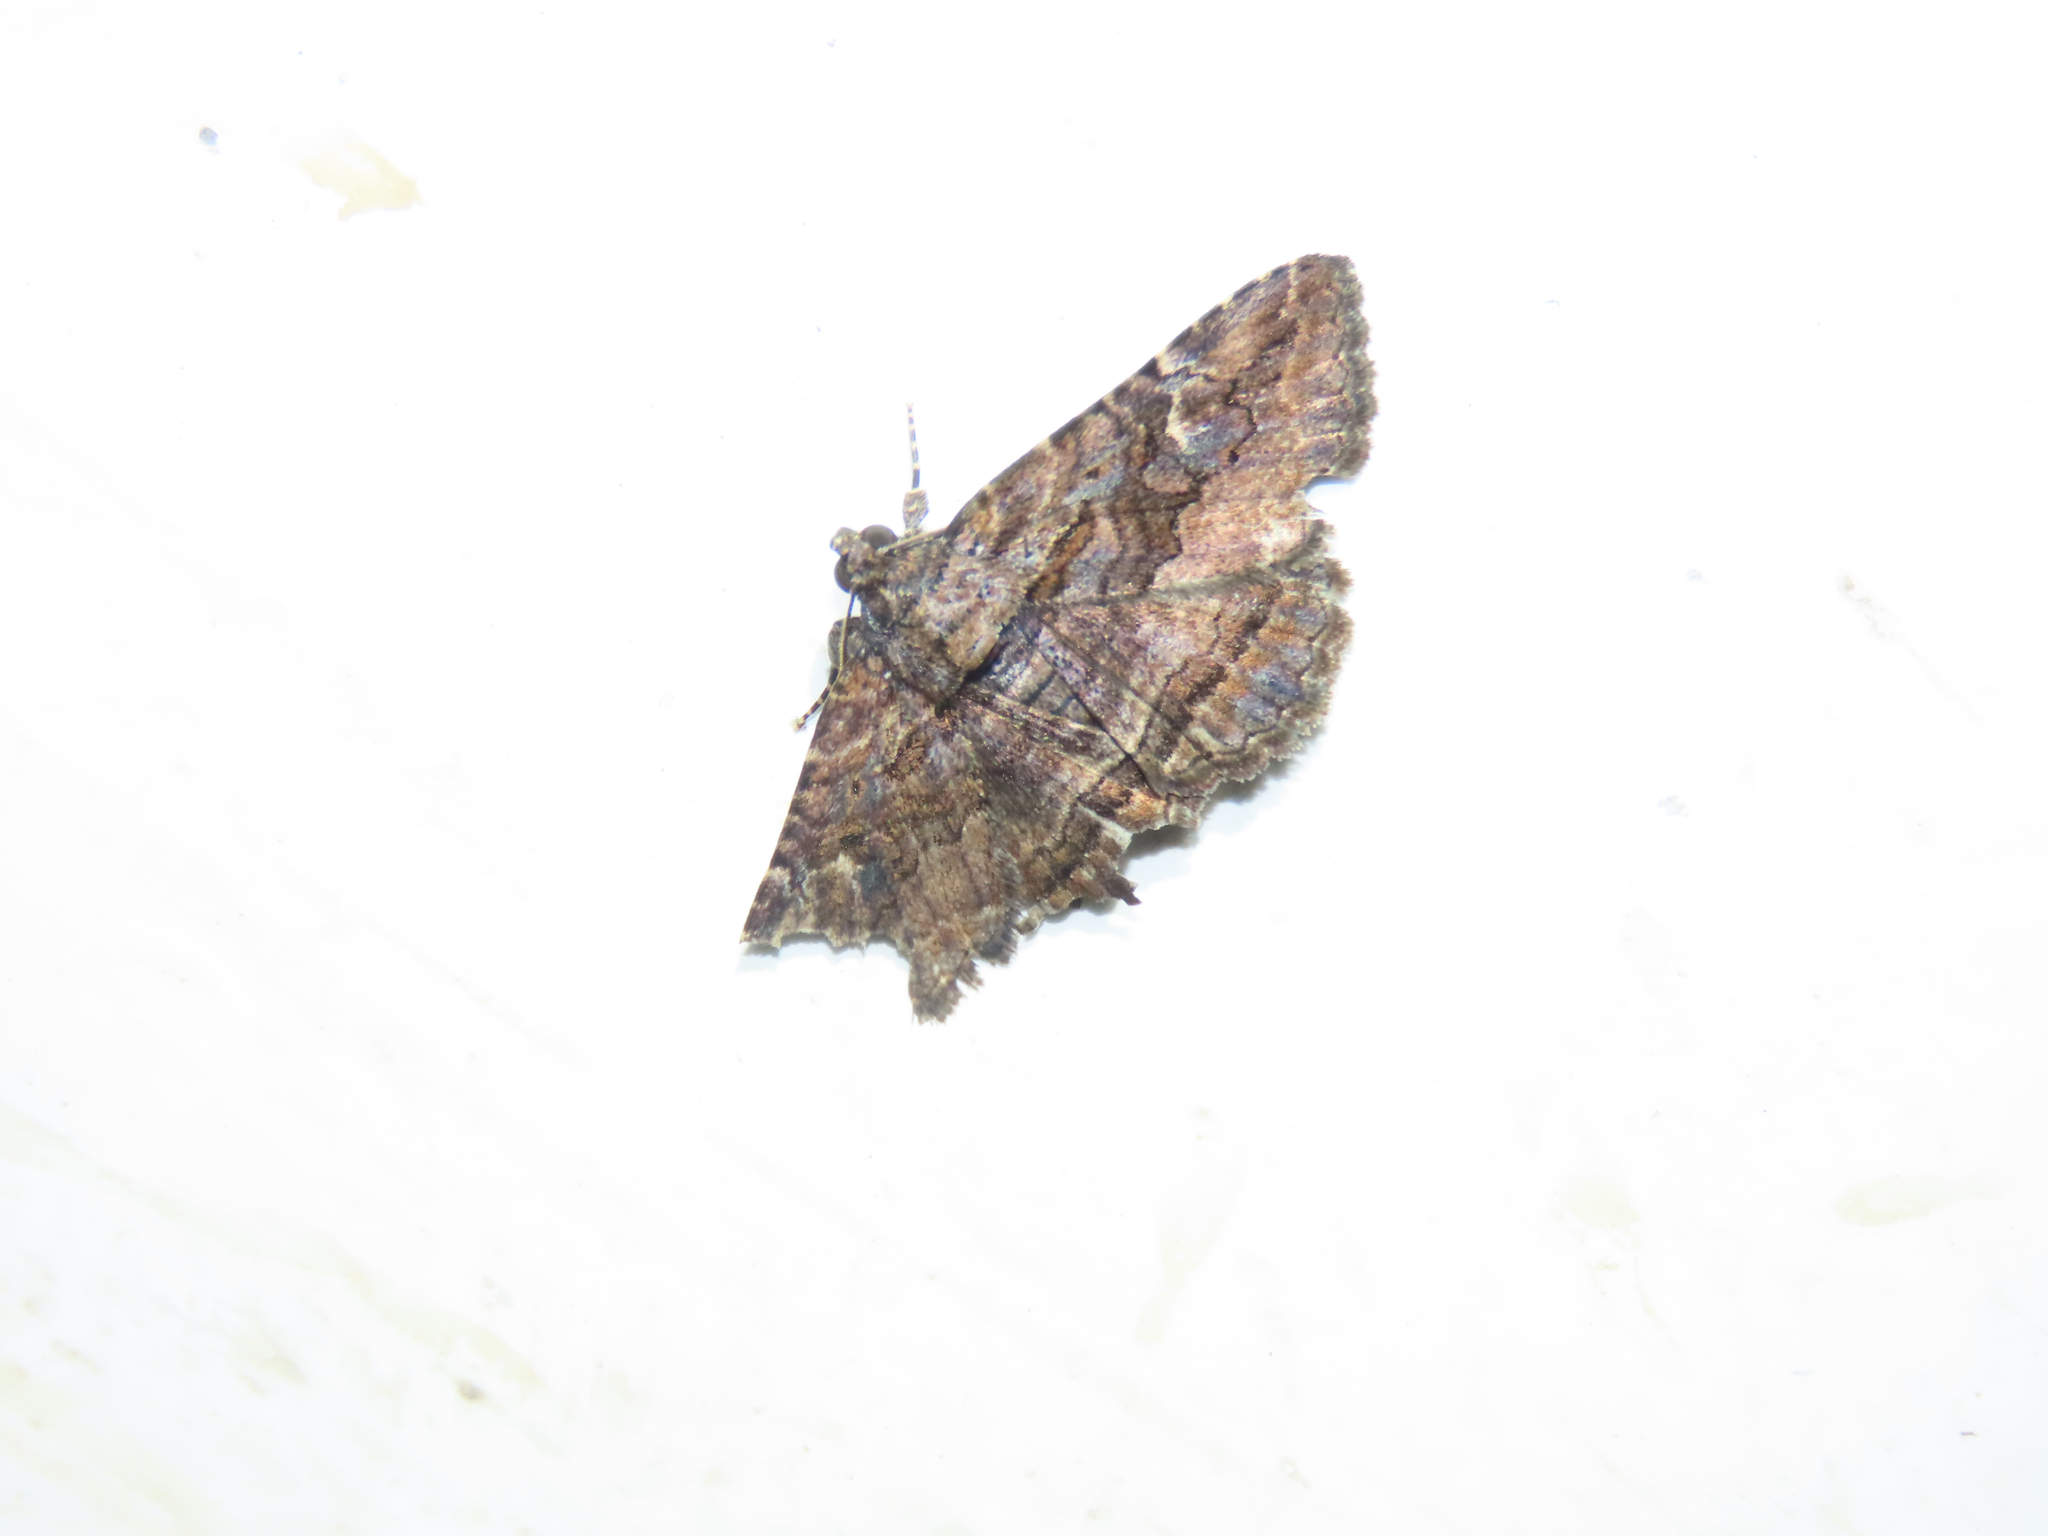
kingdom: Animalia
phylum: Arthropoda
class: Insecta
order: Lepidoptera
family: Erebidae
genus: Zaleops
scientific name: Zaleops umbrina
